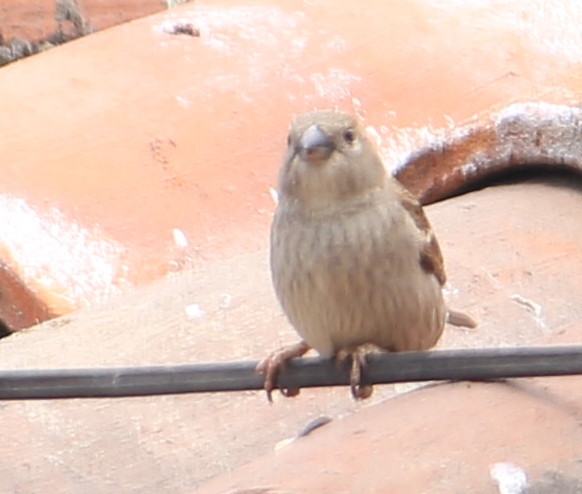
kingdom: Animalia
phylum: Chordata
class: Aves
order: Passeriformes
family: Passeridae
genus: Passer
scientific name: Passer domesticus
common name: House sparrow
